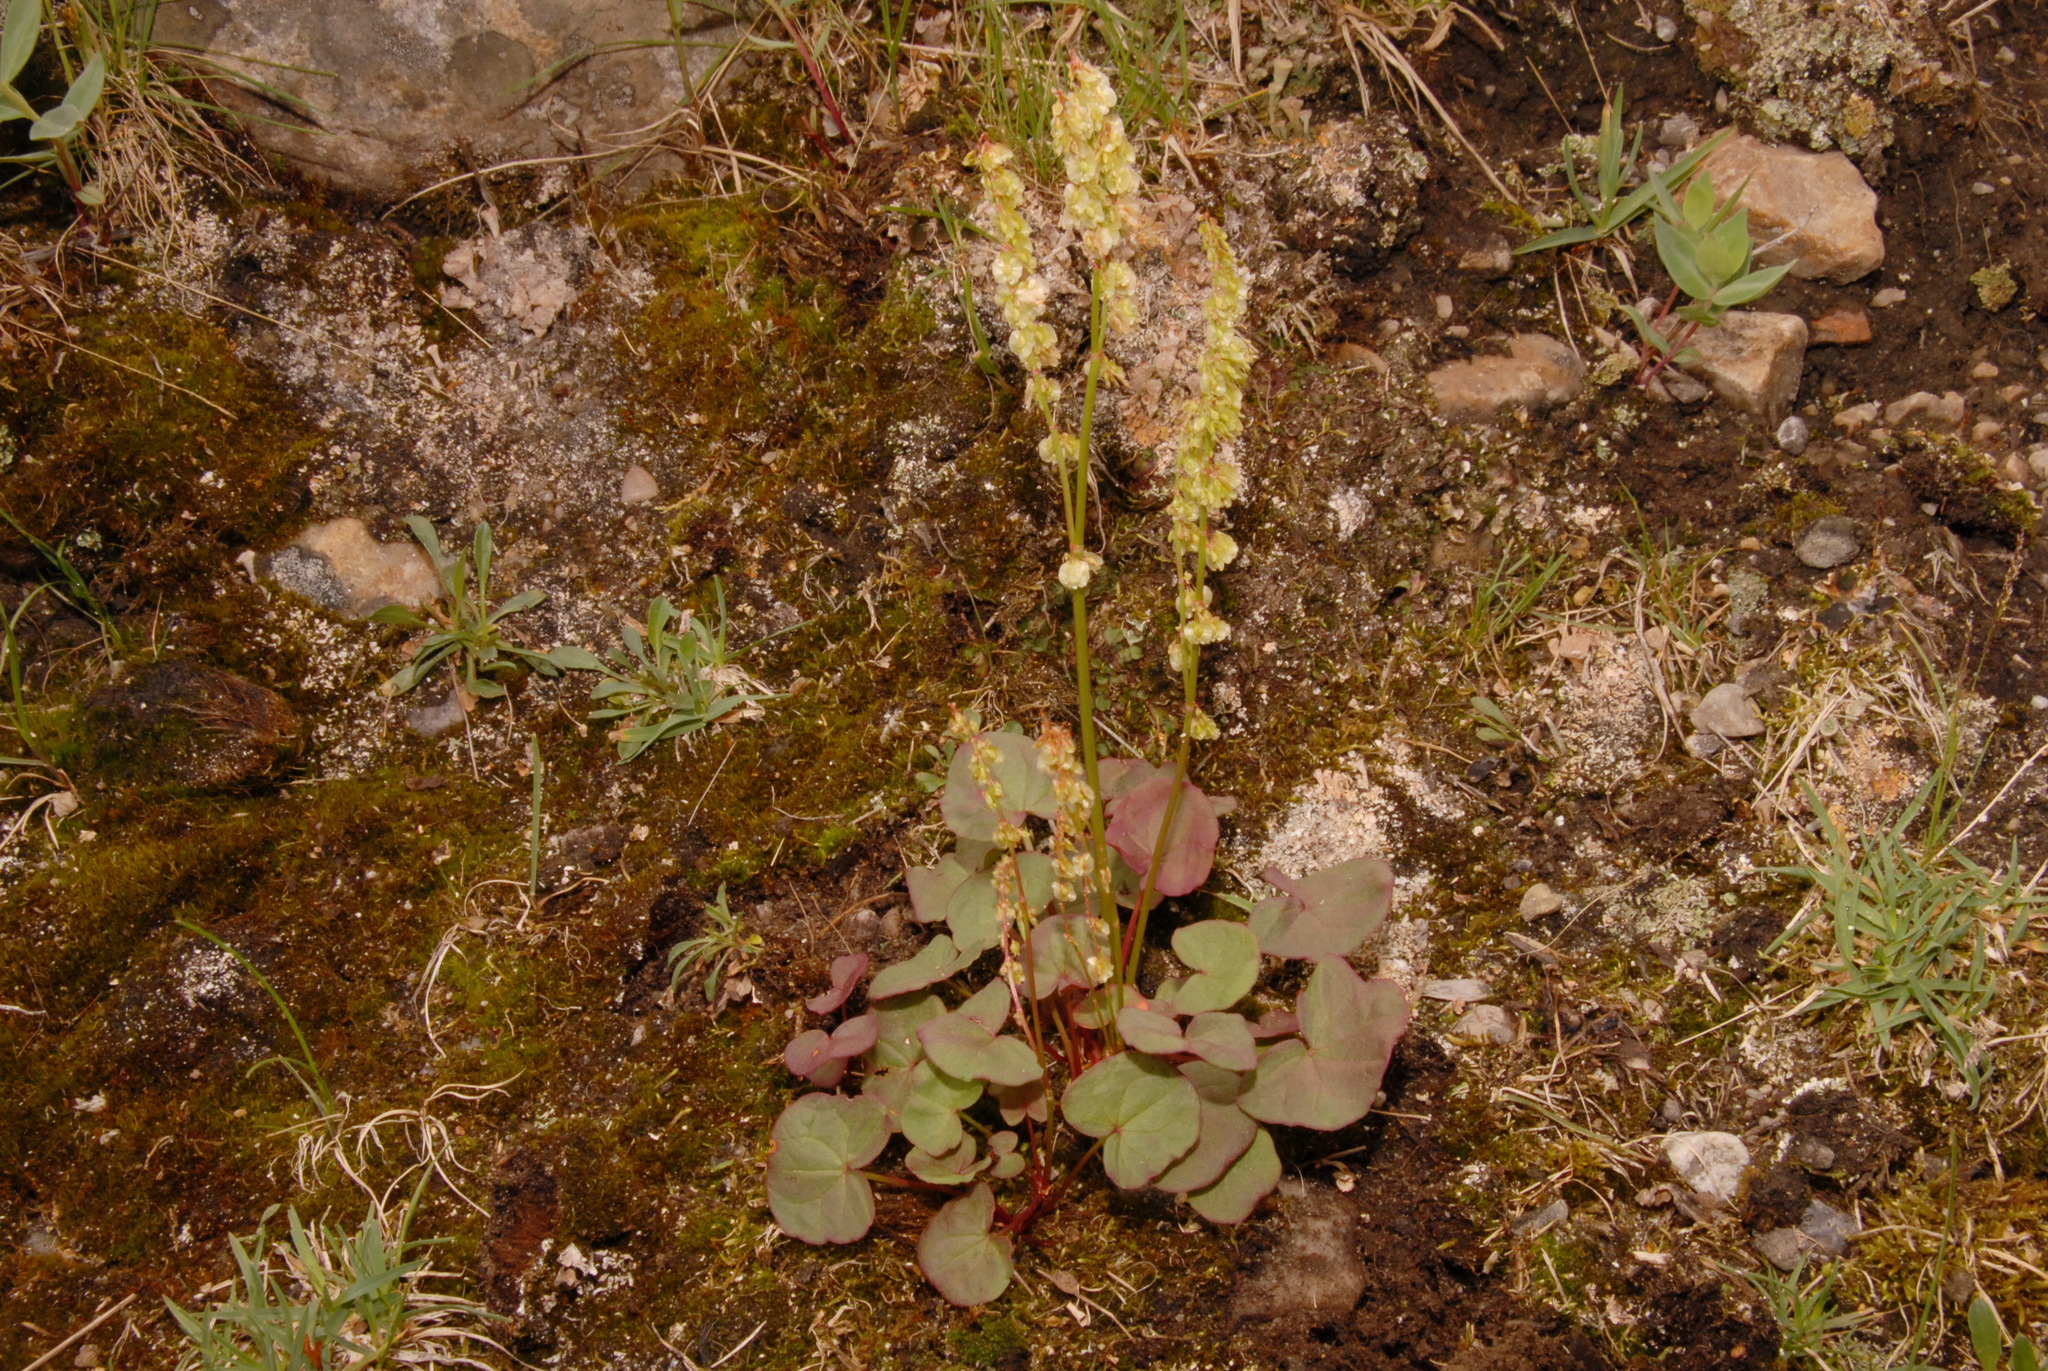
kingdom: Plantae
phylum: Tracheophyta
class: Magnoliopsida
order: Caryophyllales
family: Polygonaceae
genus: Oxyria
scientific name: Oxyria digyna
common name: Alpine mountain-sorrel
